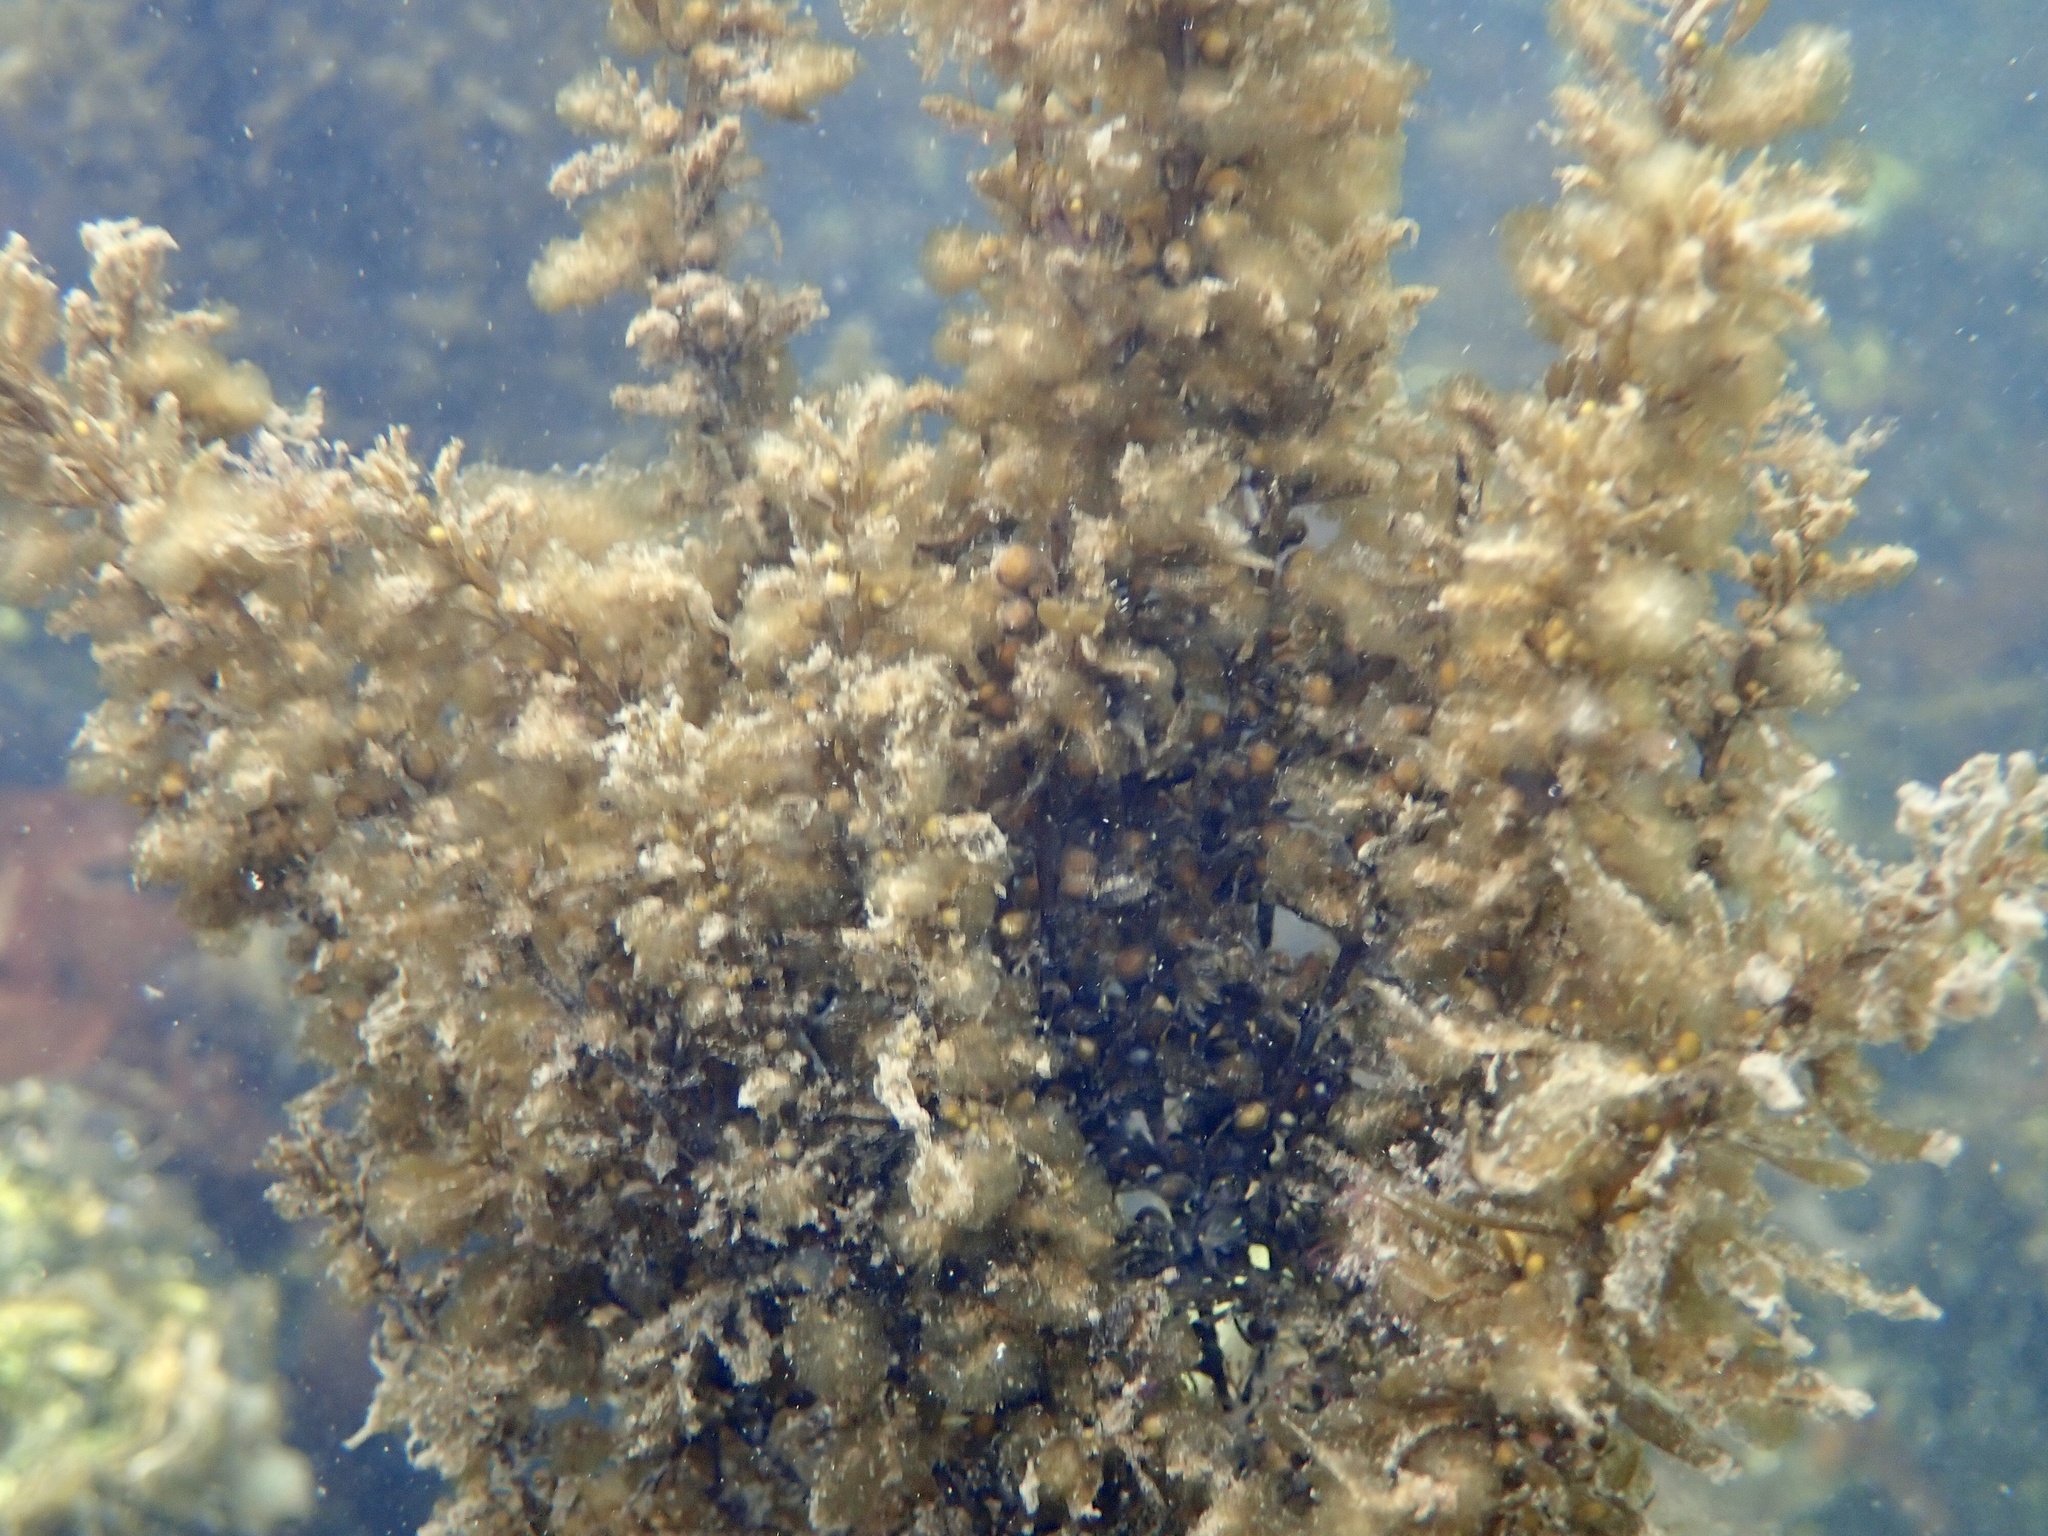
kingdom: Chromista
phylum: Ochrophyta
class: Phaeophyceae
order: Fucales
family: Sargassaceae
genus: Sargassum
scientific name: Sargassum muticum
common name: Japweed
